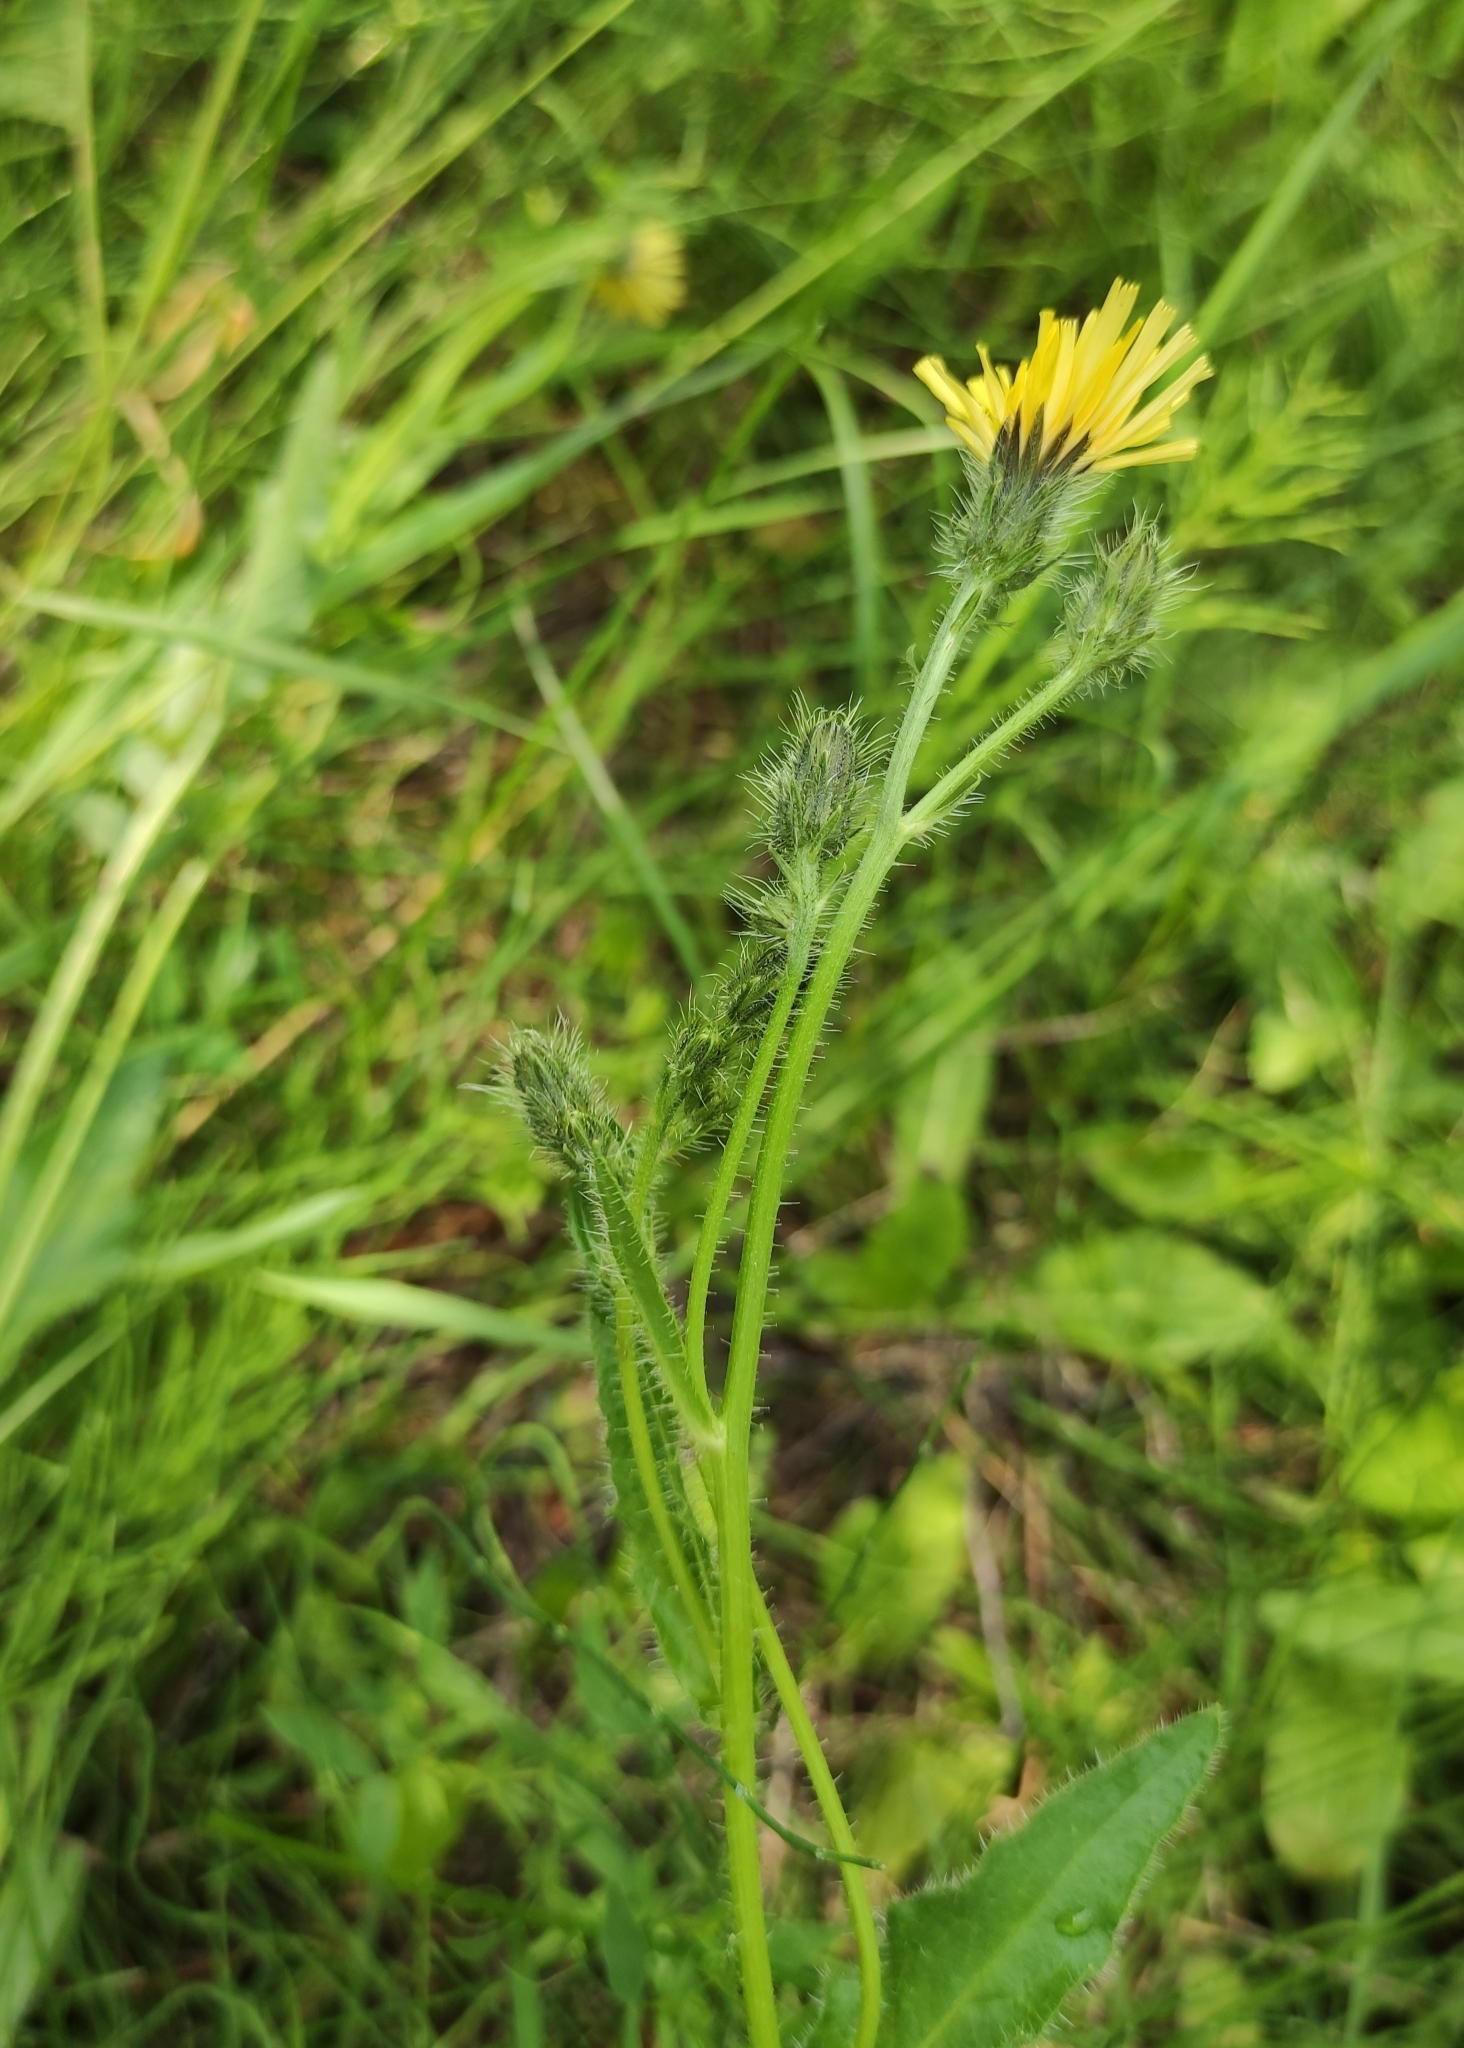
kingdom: Plantae
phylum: Tracheophyta
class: Magnoliopsida
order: Asterales
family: Asteraceae
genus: Picris
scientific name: Picris davurica
